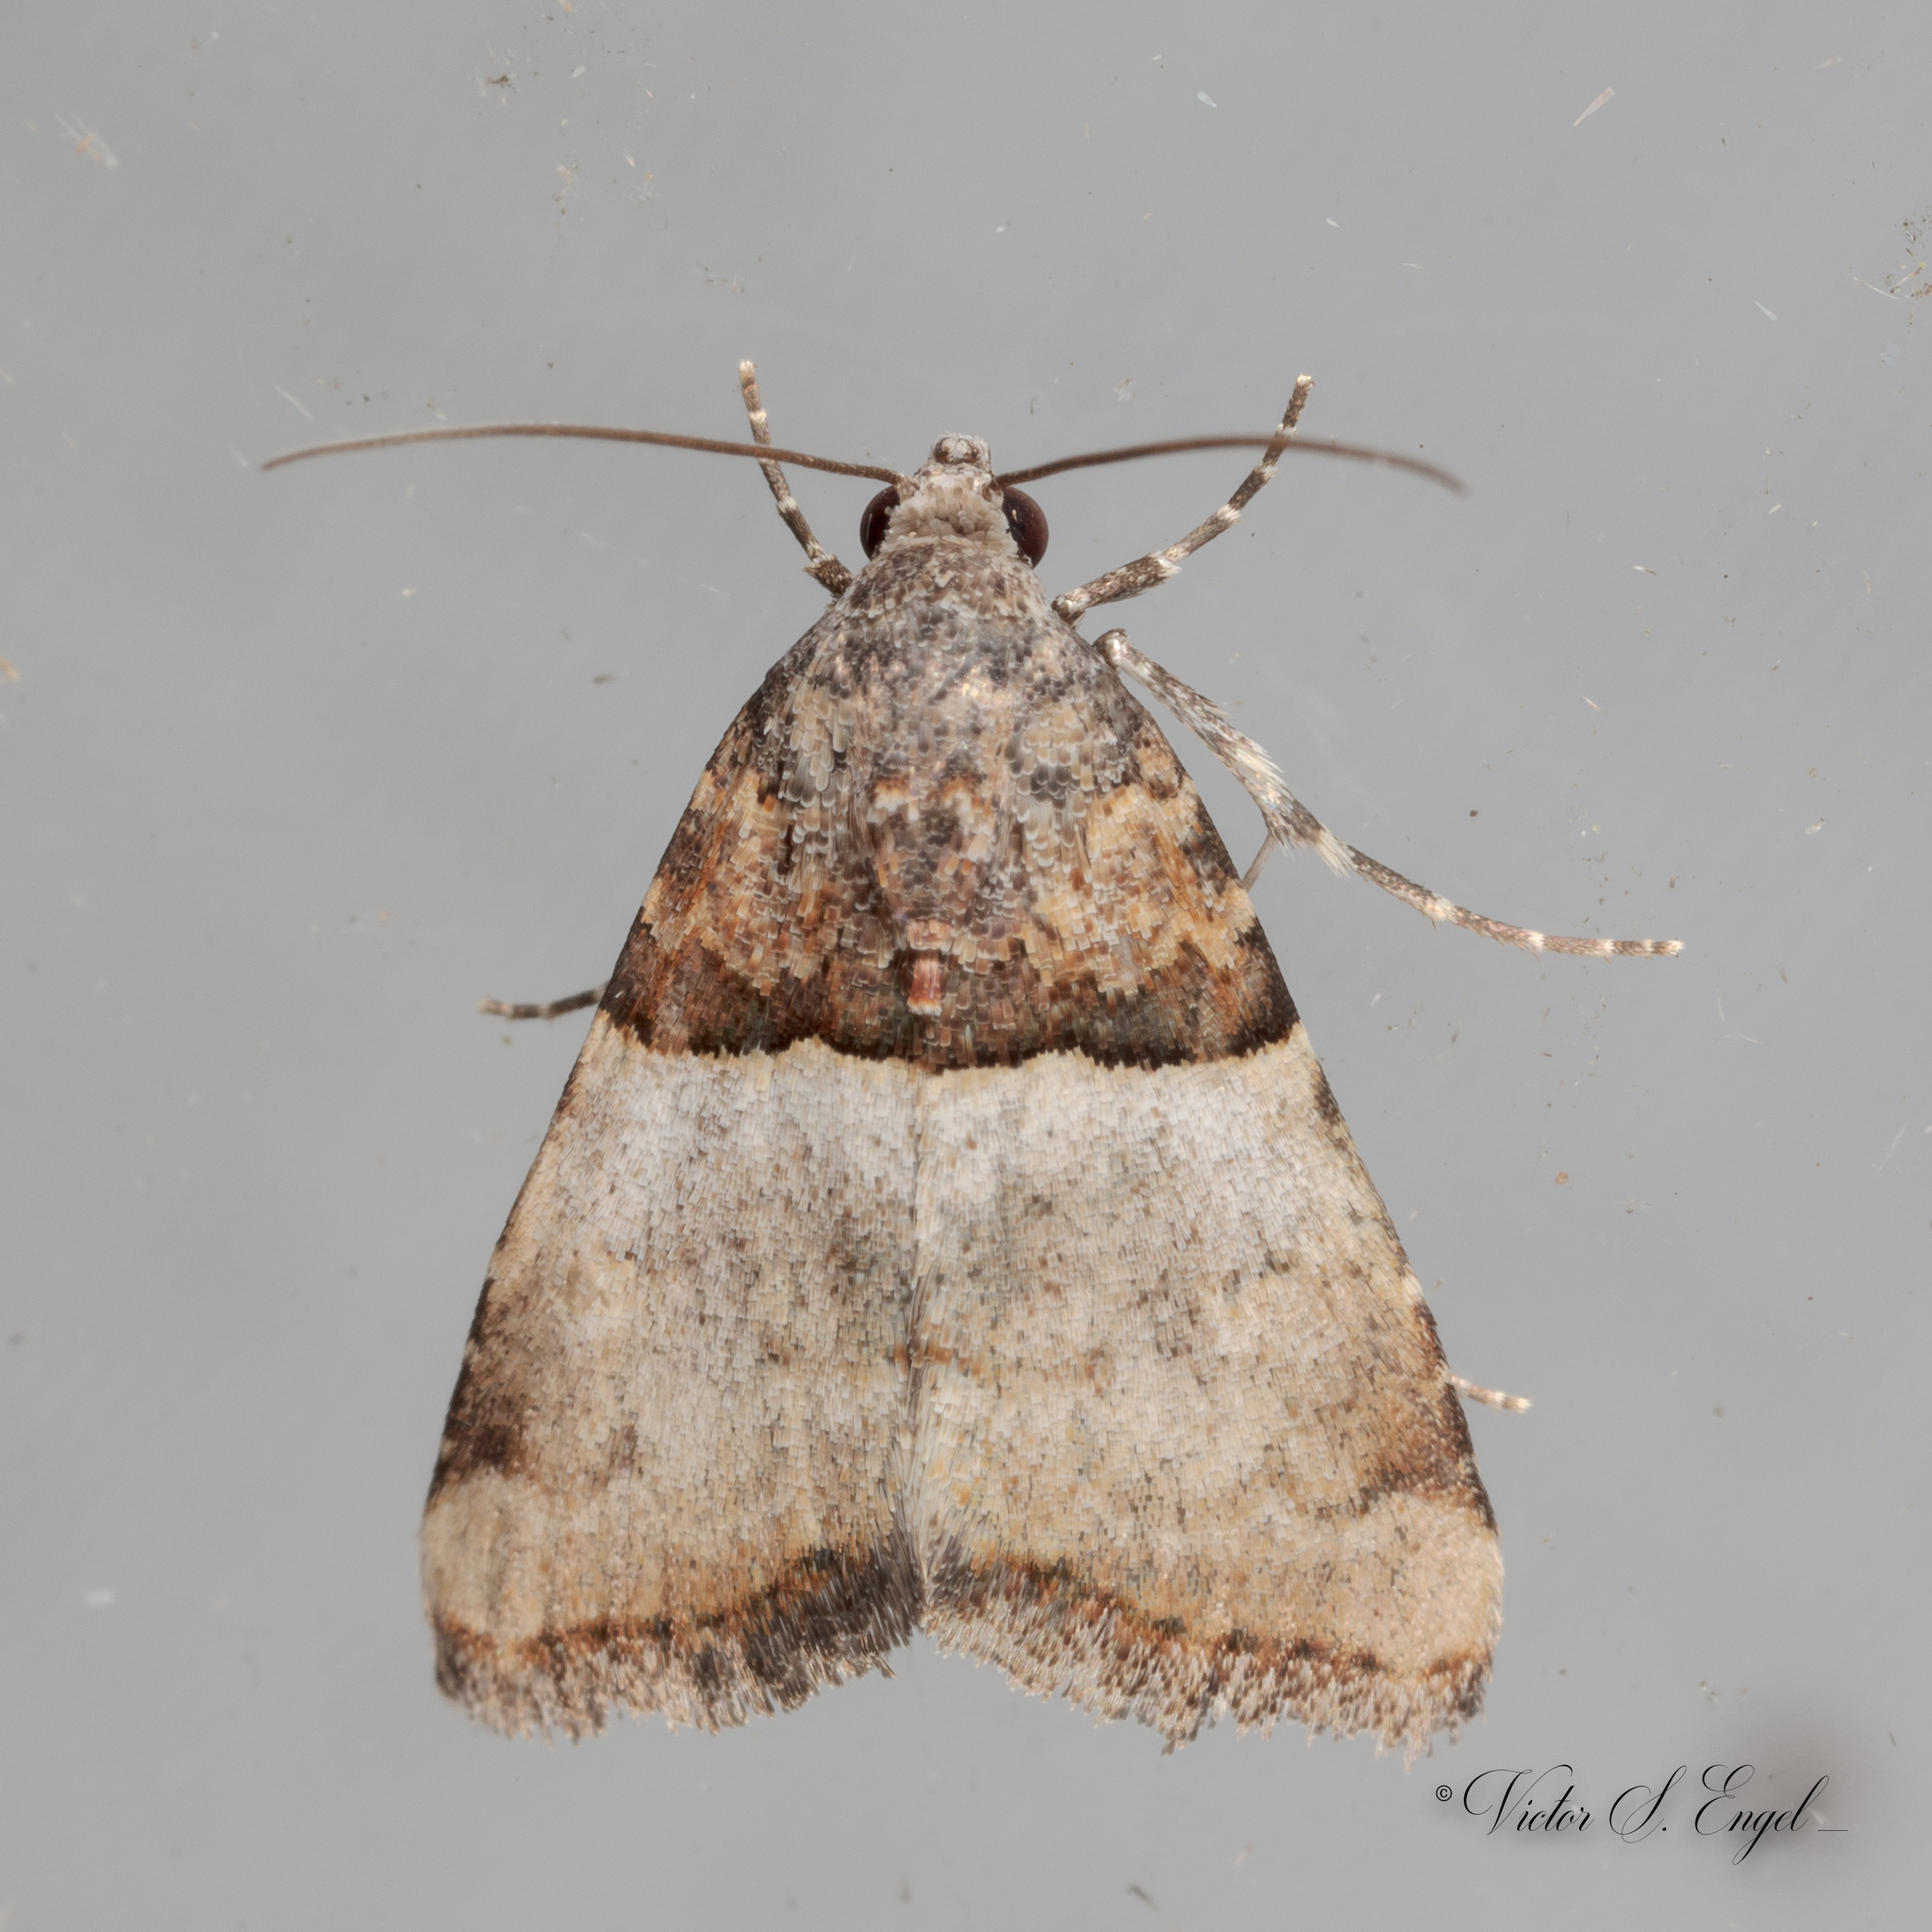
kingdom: Animalia
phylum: Arthropoda
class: Insecta
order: Lepidoptera
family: Noctuidae
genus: Cobubatha
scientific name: Cobubatha dividua
